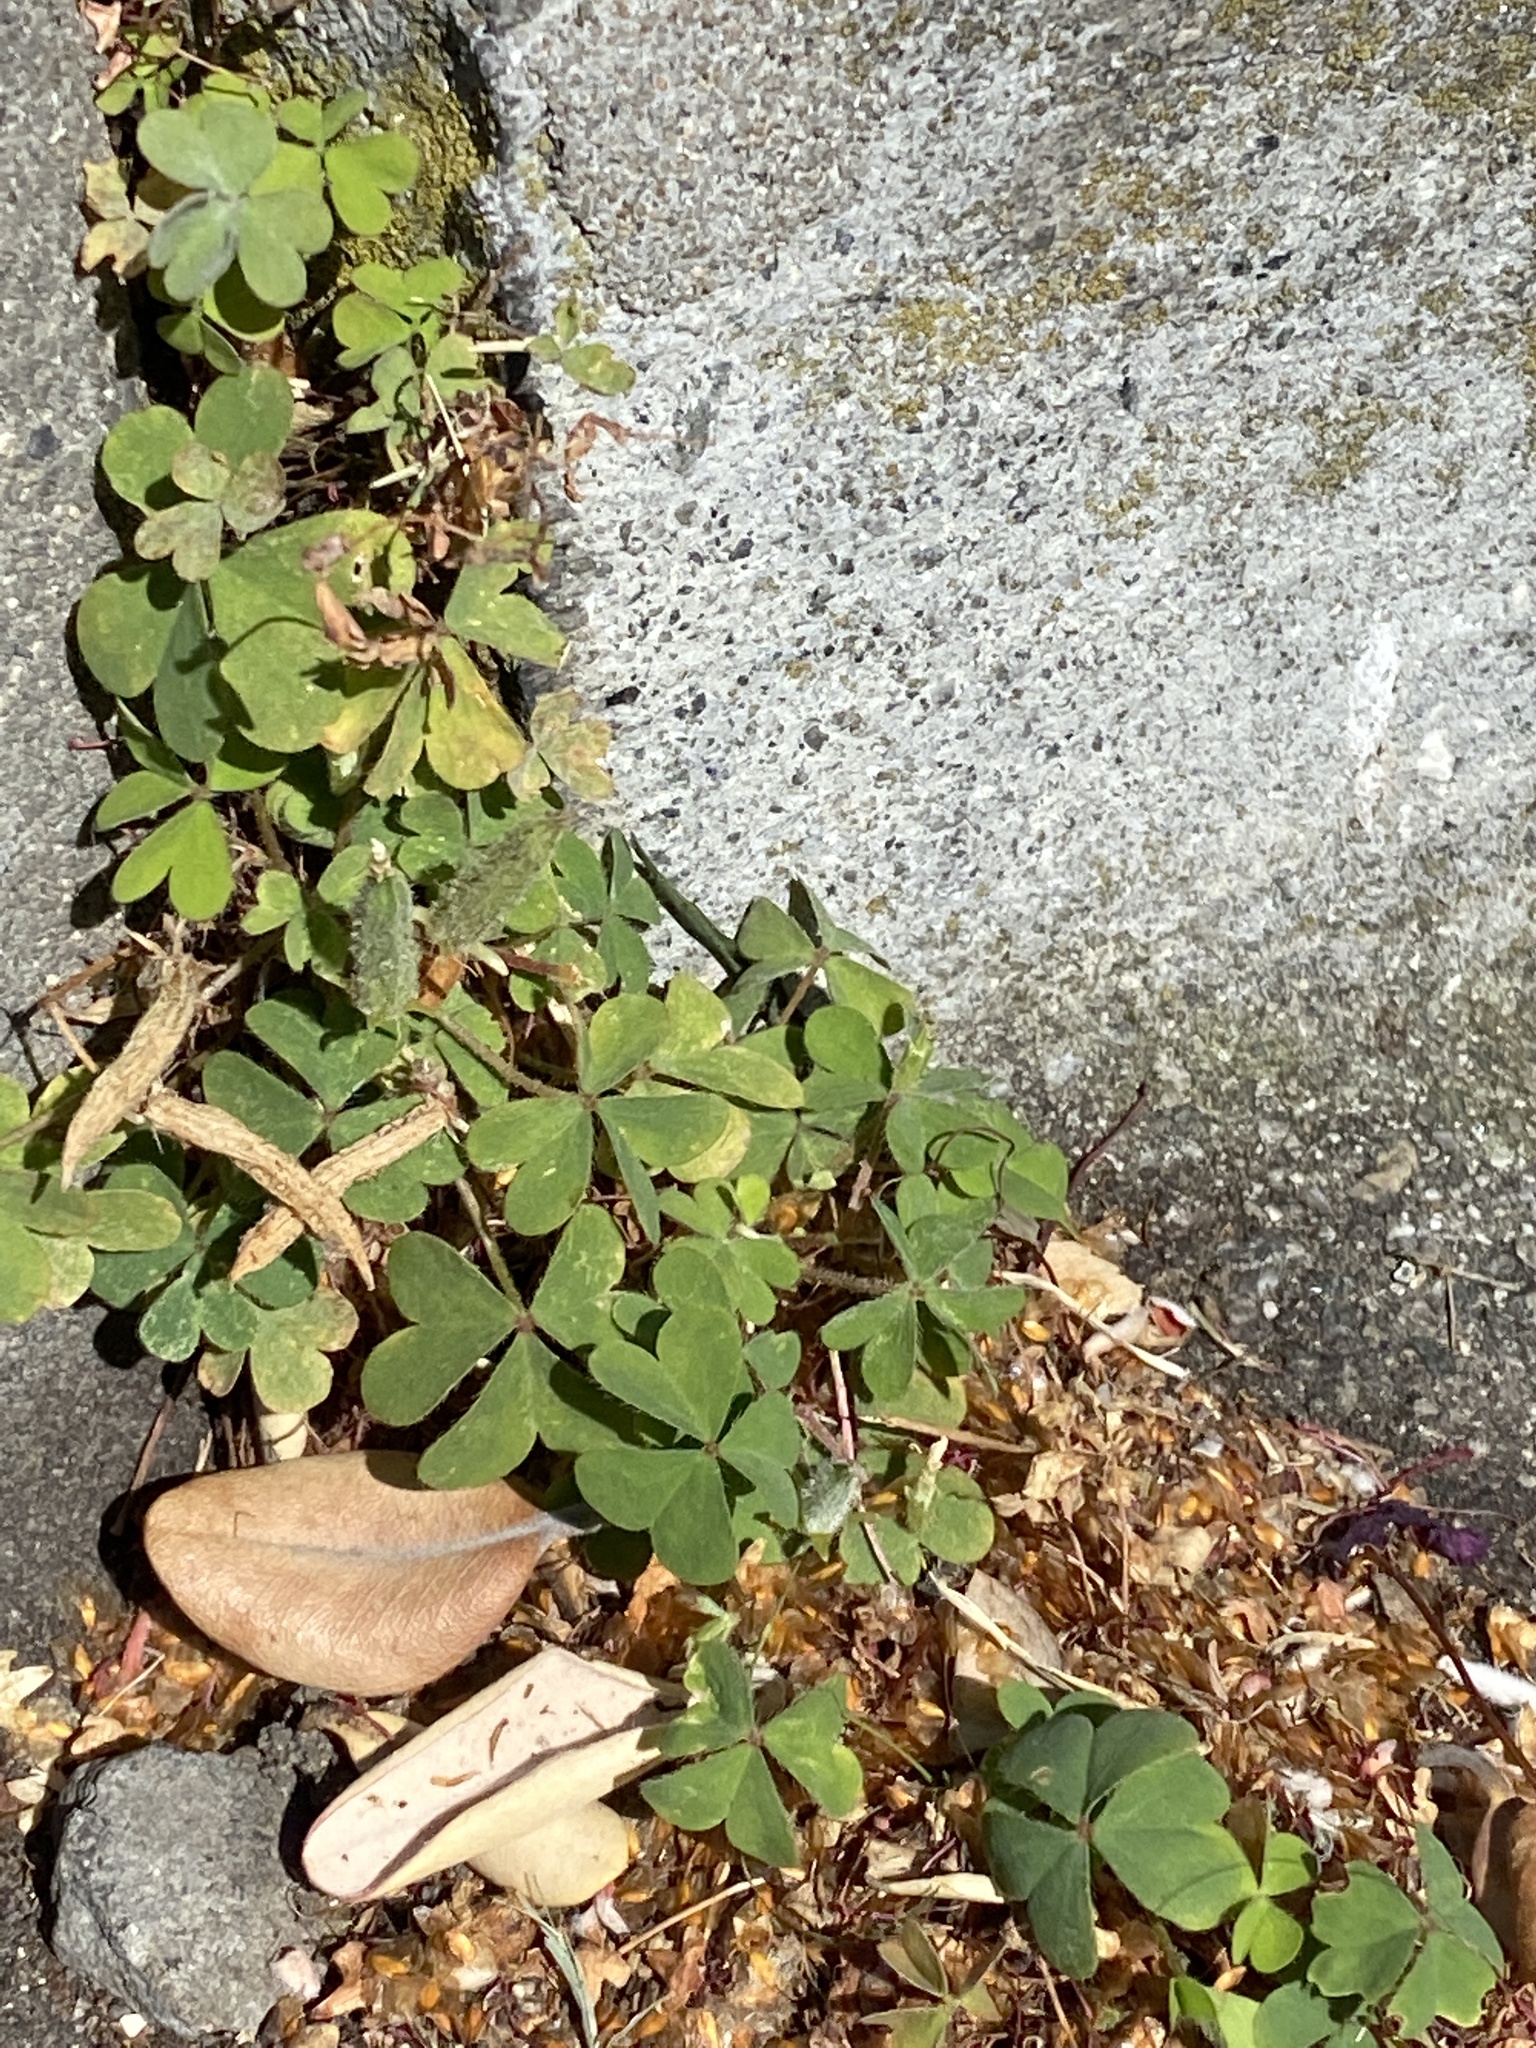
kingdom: Plantae
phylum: Tracheophyta
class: Magnoliopsida
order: Oxalidales
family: Oxalidaceae
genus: Oxalis
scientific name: Oxalis corniculata
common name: Procumbent yellow-sorrel
